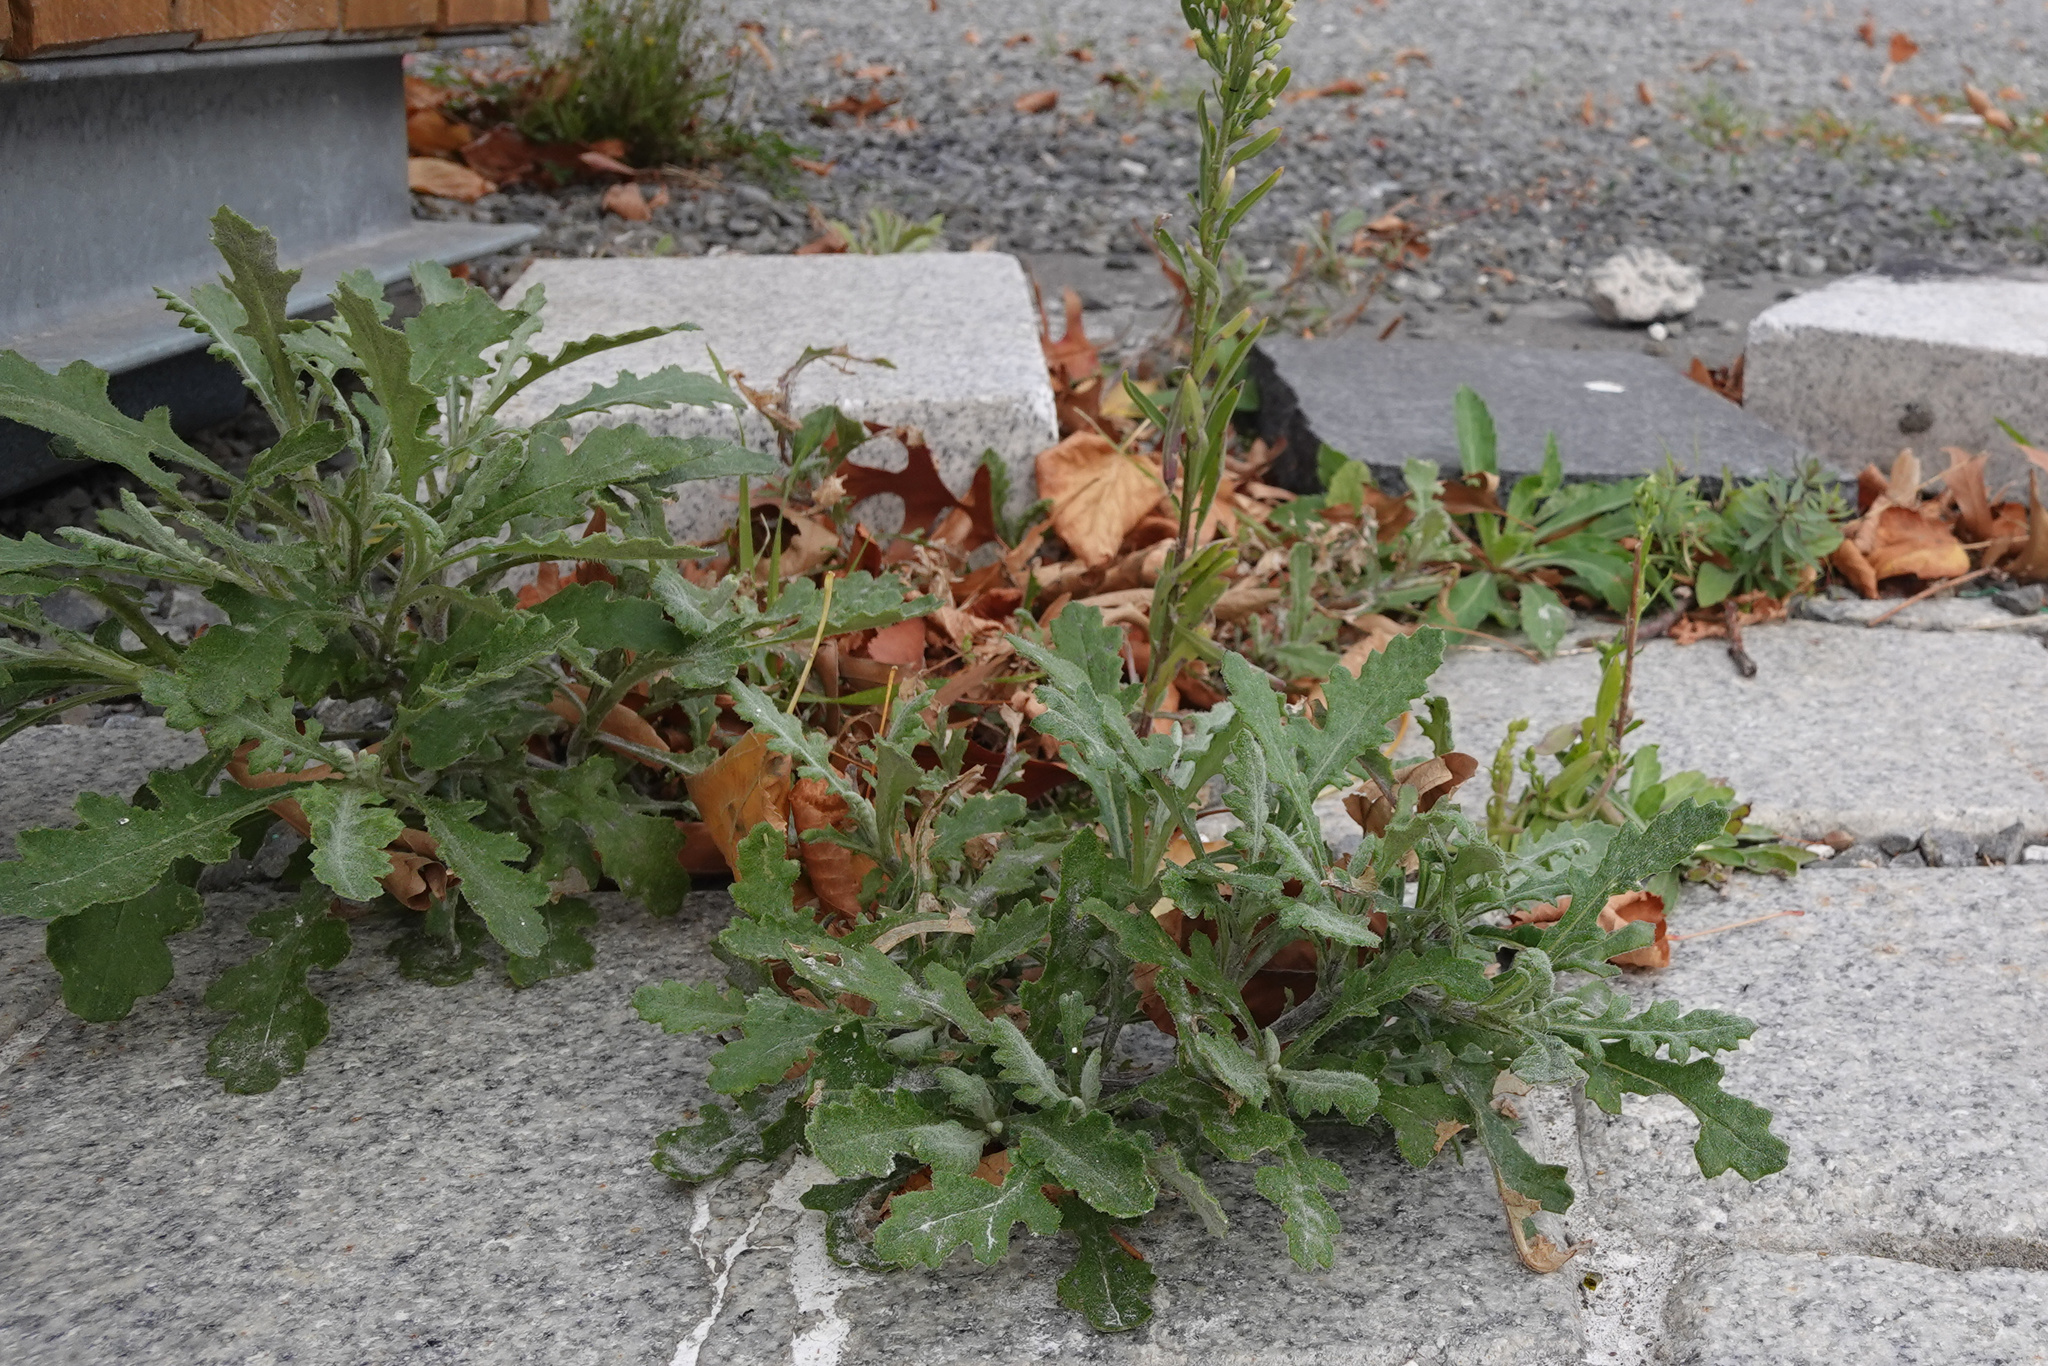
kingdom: Plantae
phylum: Tracheophyta
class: Magnoliopsida
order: Asterales
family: Asteraceae
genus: Senecio
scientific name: Senecio glomeratus
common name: Cutleaf burnweed
